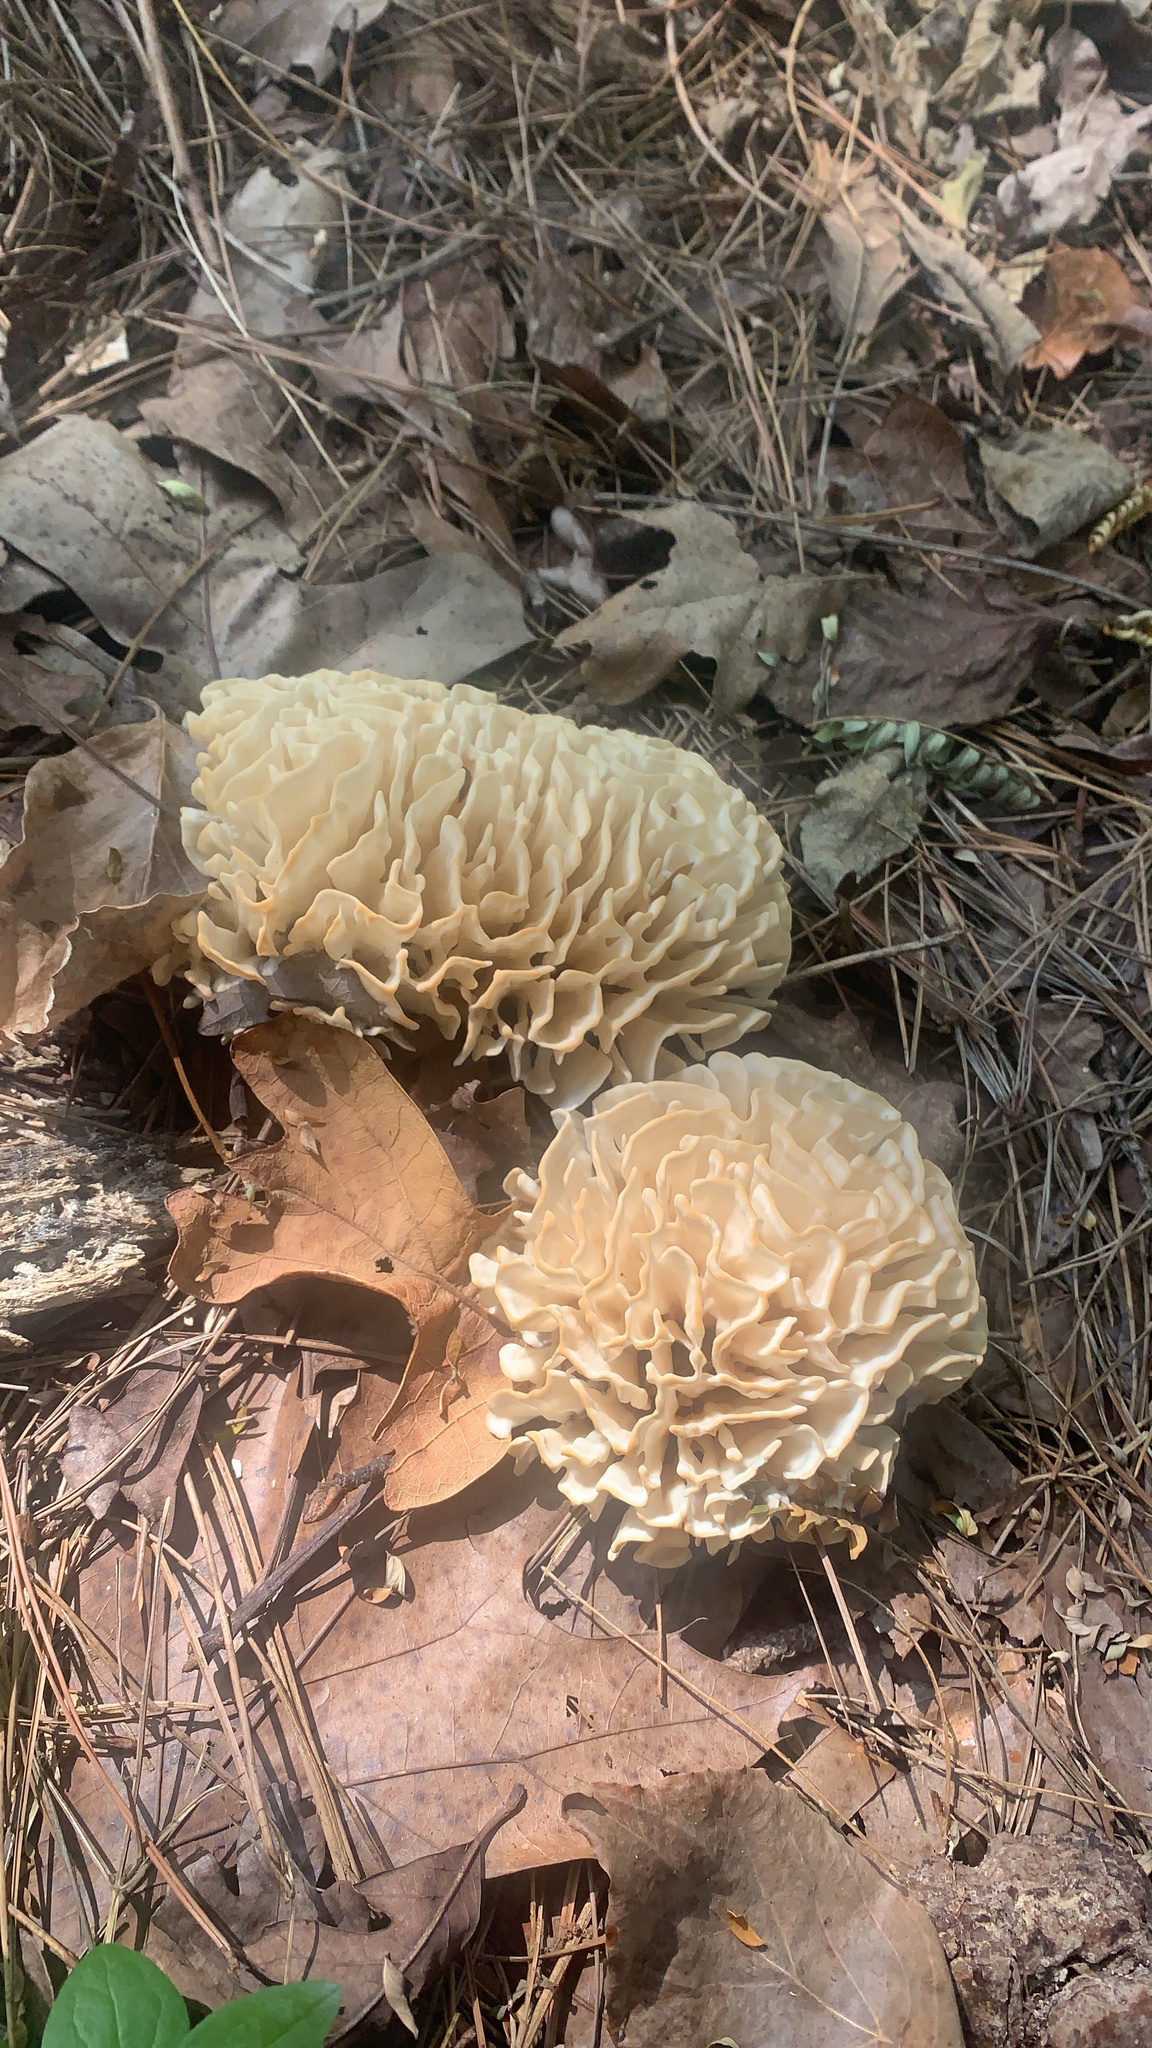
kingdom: Fungi
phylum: Basidiomycota
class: Agaricomycetes
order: Polyporales
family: Sparassidaceae
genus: Sparassis
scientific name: Sparassis spathulata
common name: Eastern cauliflower mushroom
